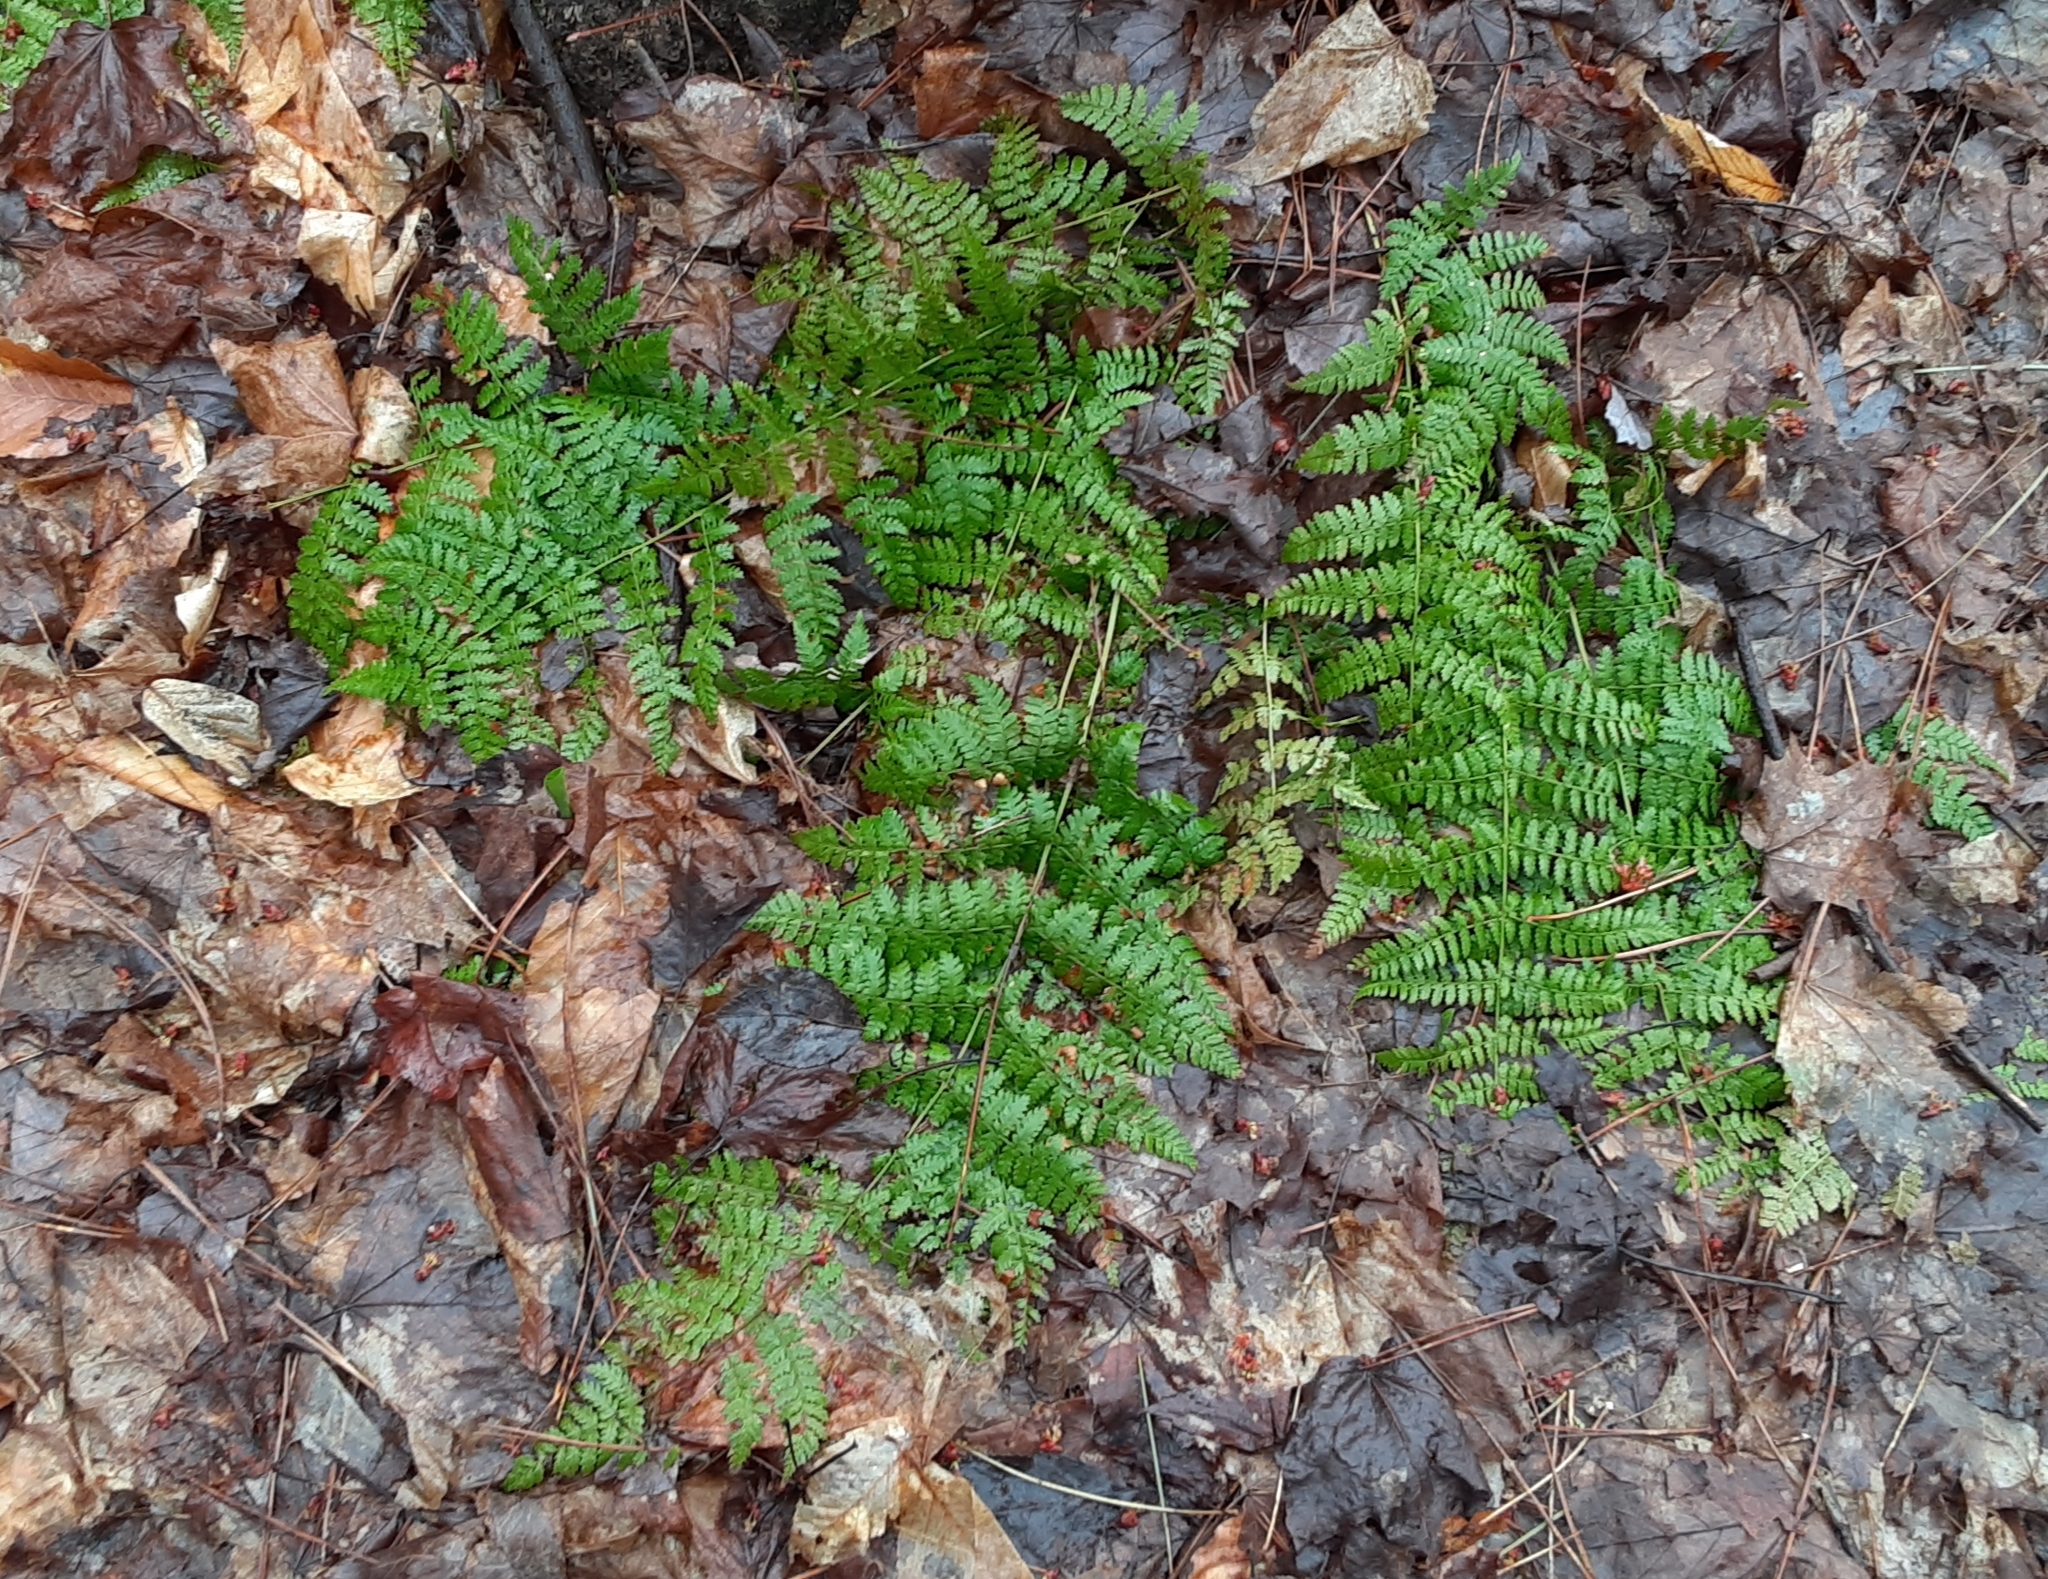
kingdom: Plantae
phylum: Tracheophyta
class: Polypodiopsida
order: Polypodiales
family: Dryopteridaceae
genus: Dryopteris
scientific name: Dryopteris intermedia
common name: Evergreen wood fern
